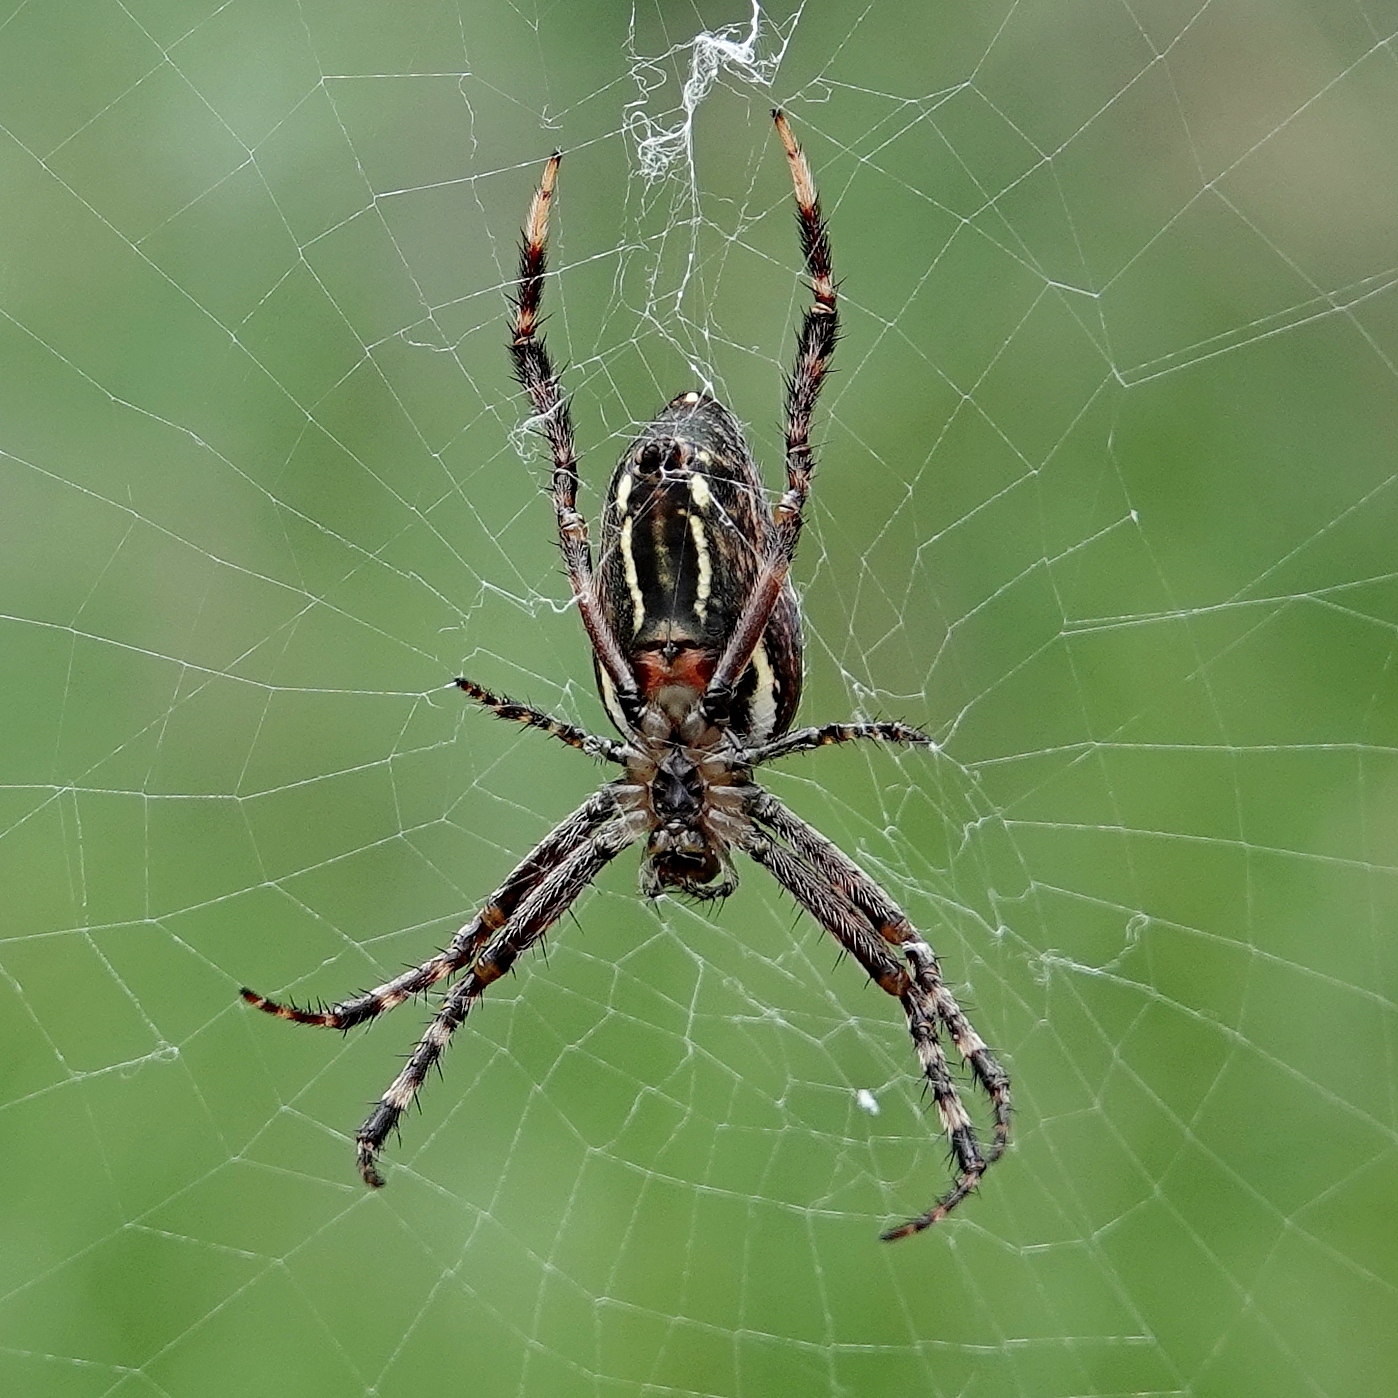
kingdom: Animalia
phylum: Arthropoda
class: Arachnida
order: Araneae
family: Araneidae
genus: Plebs
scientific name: Plebs bradleyi
